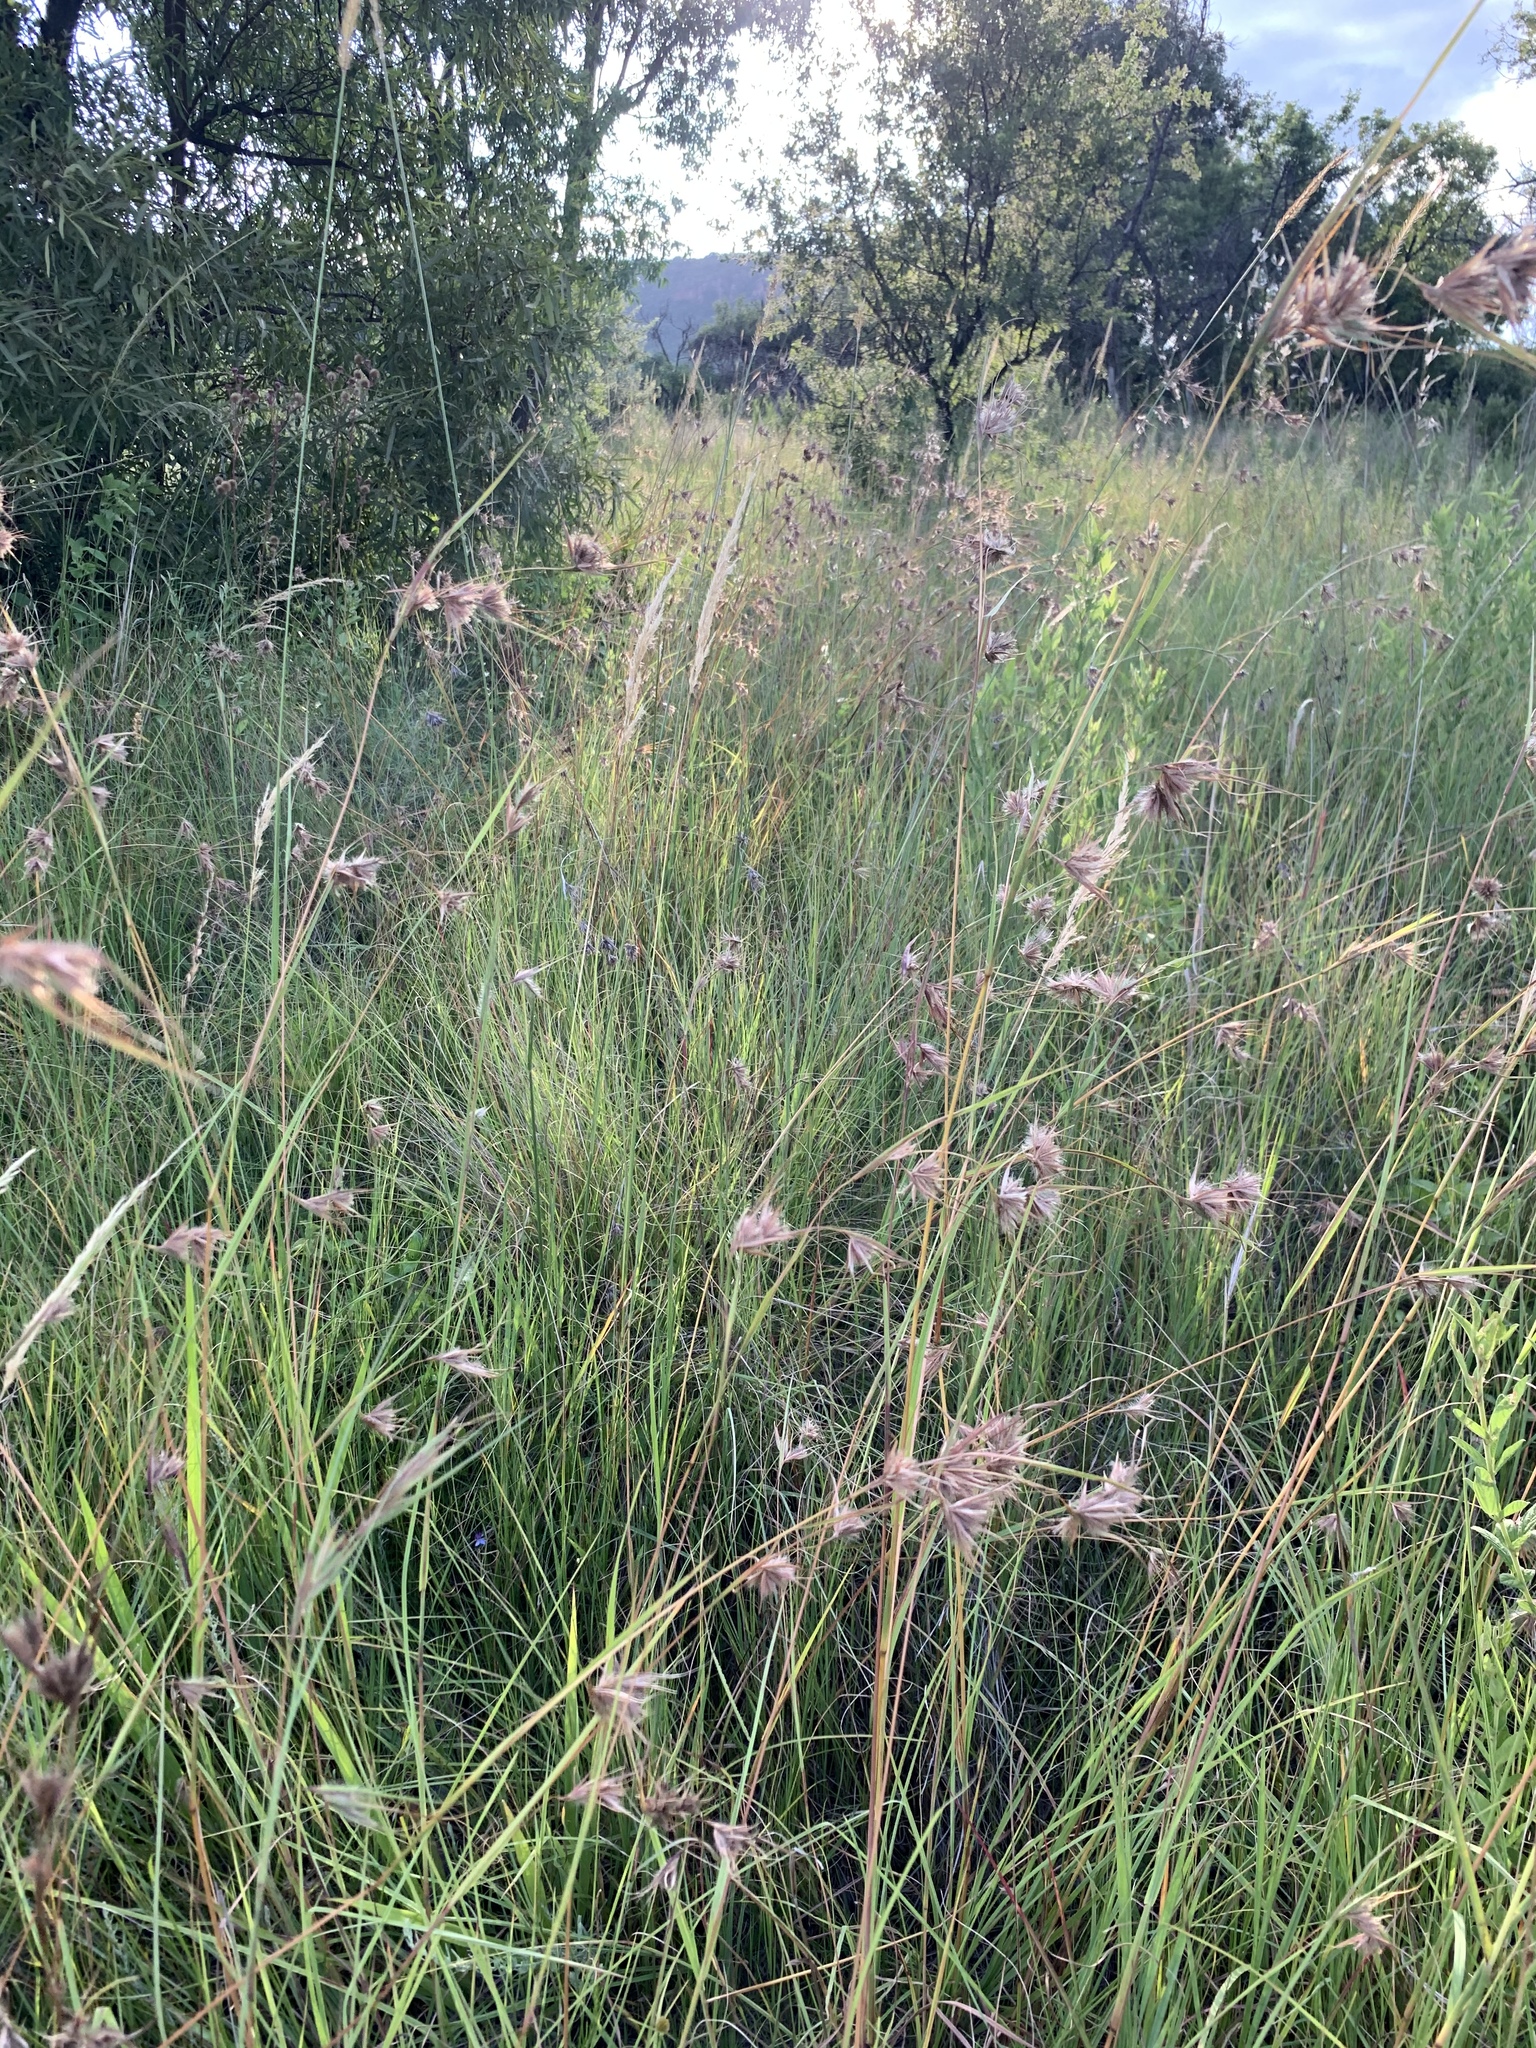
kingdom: Plantae
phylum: Tracheophyta
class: Liliopsida
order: Poales
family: Poaceae
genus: Themeda
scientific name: Themeda triandra
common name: Kangaroo grass
